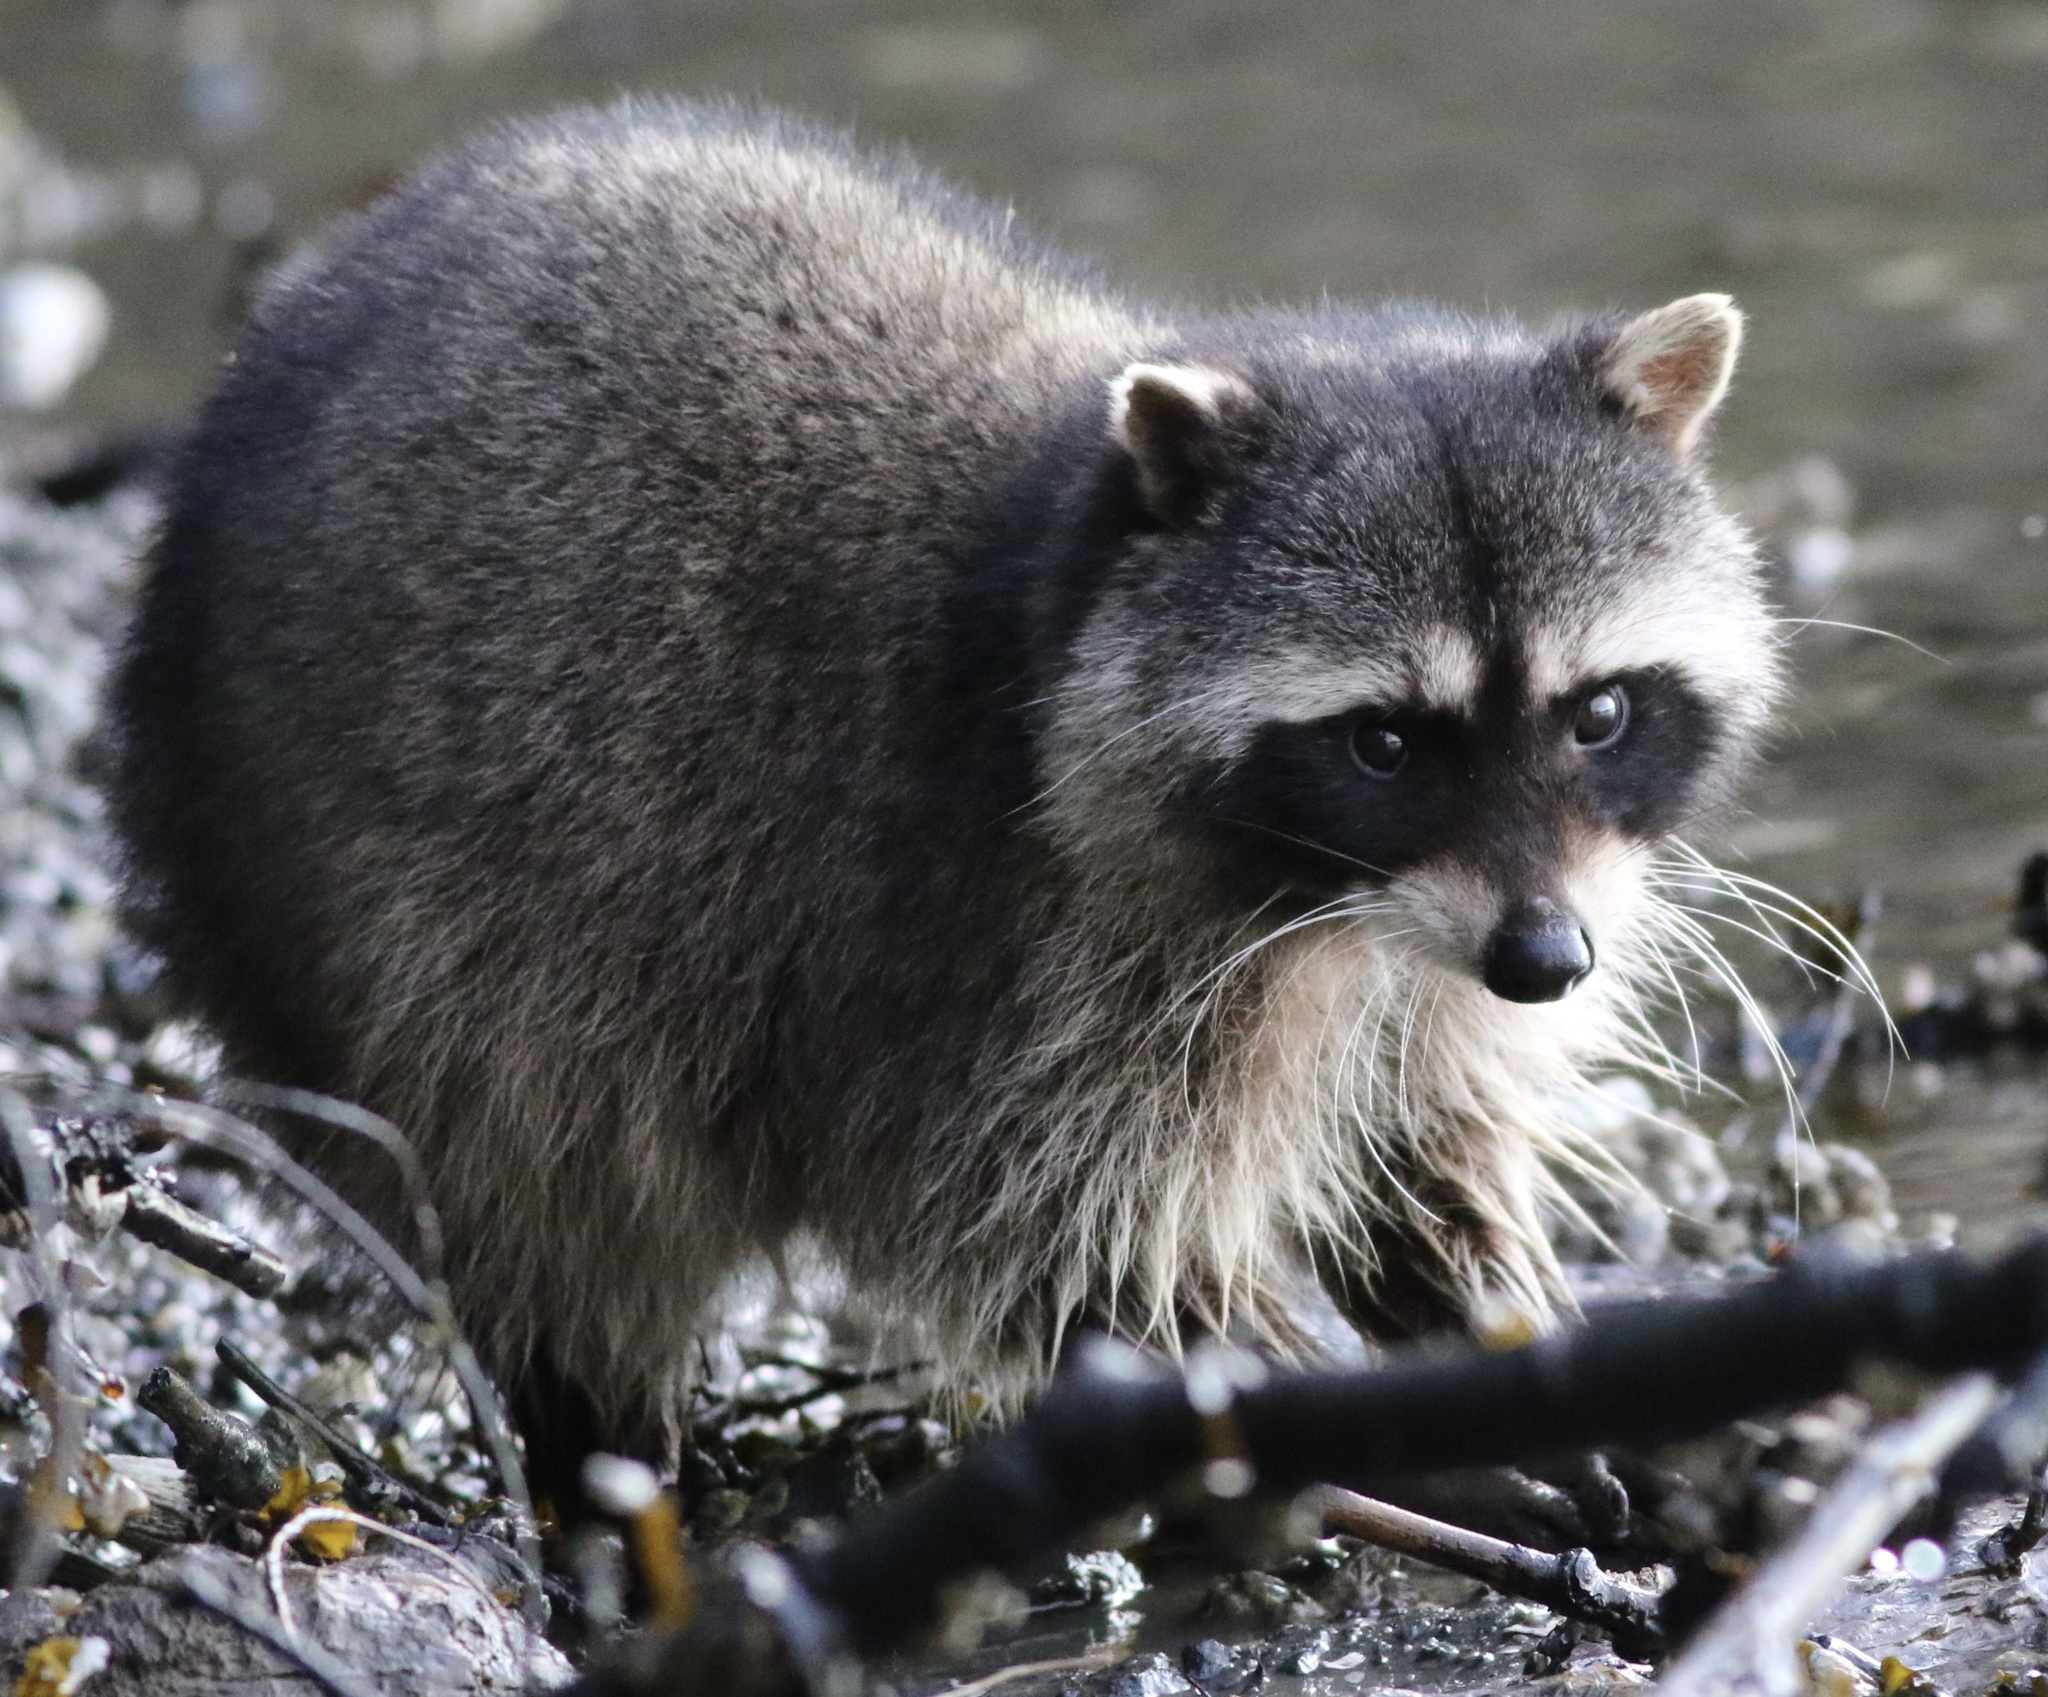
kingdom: Animalia
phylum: Chordata
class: Mammalia
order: Carnivora
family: Procyonidae
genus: Procyon
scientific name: Procyon lotor
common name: Raccoon
